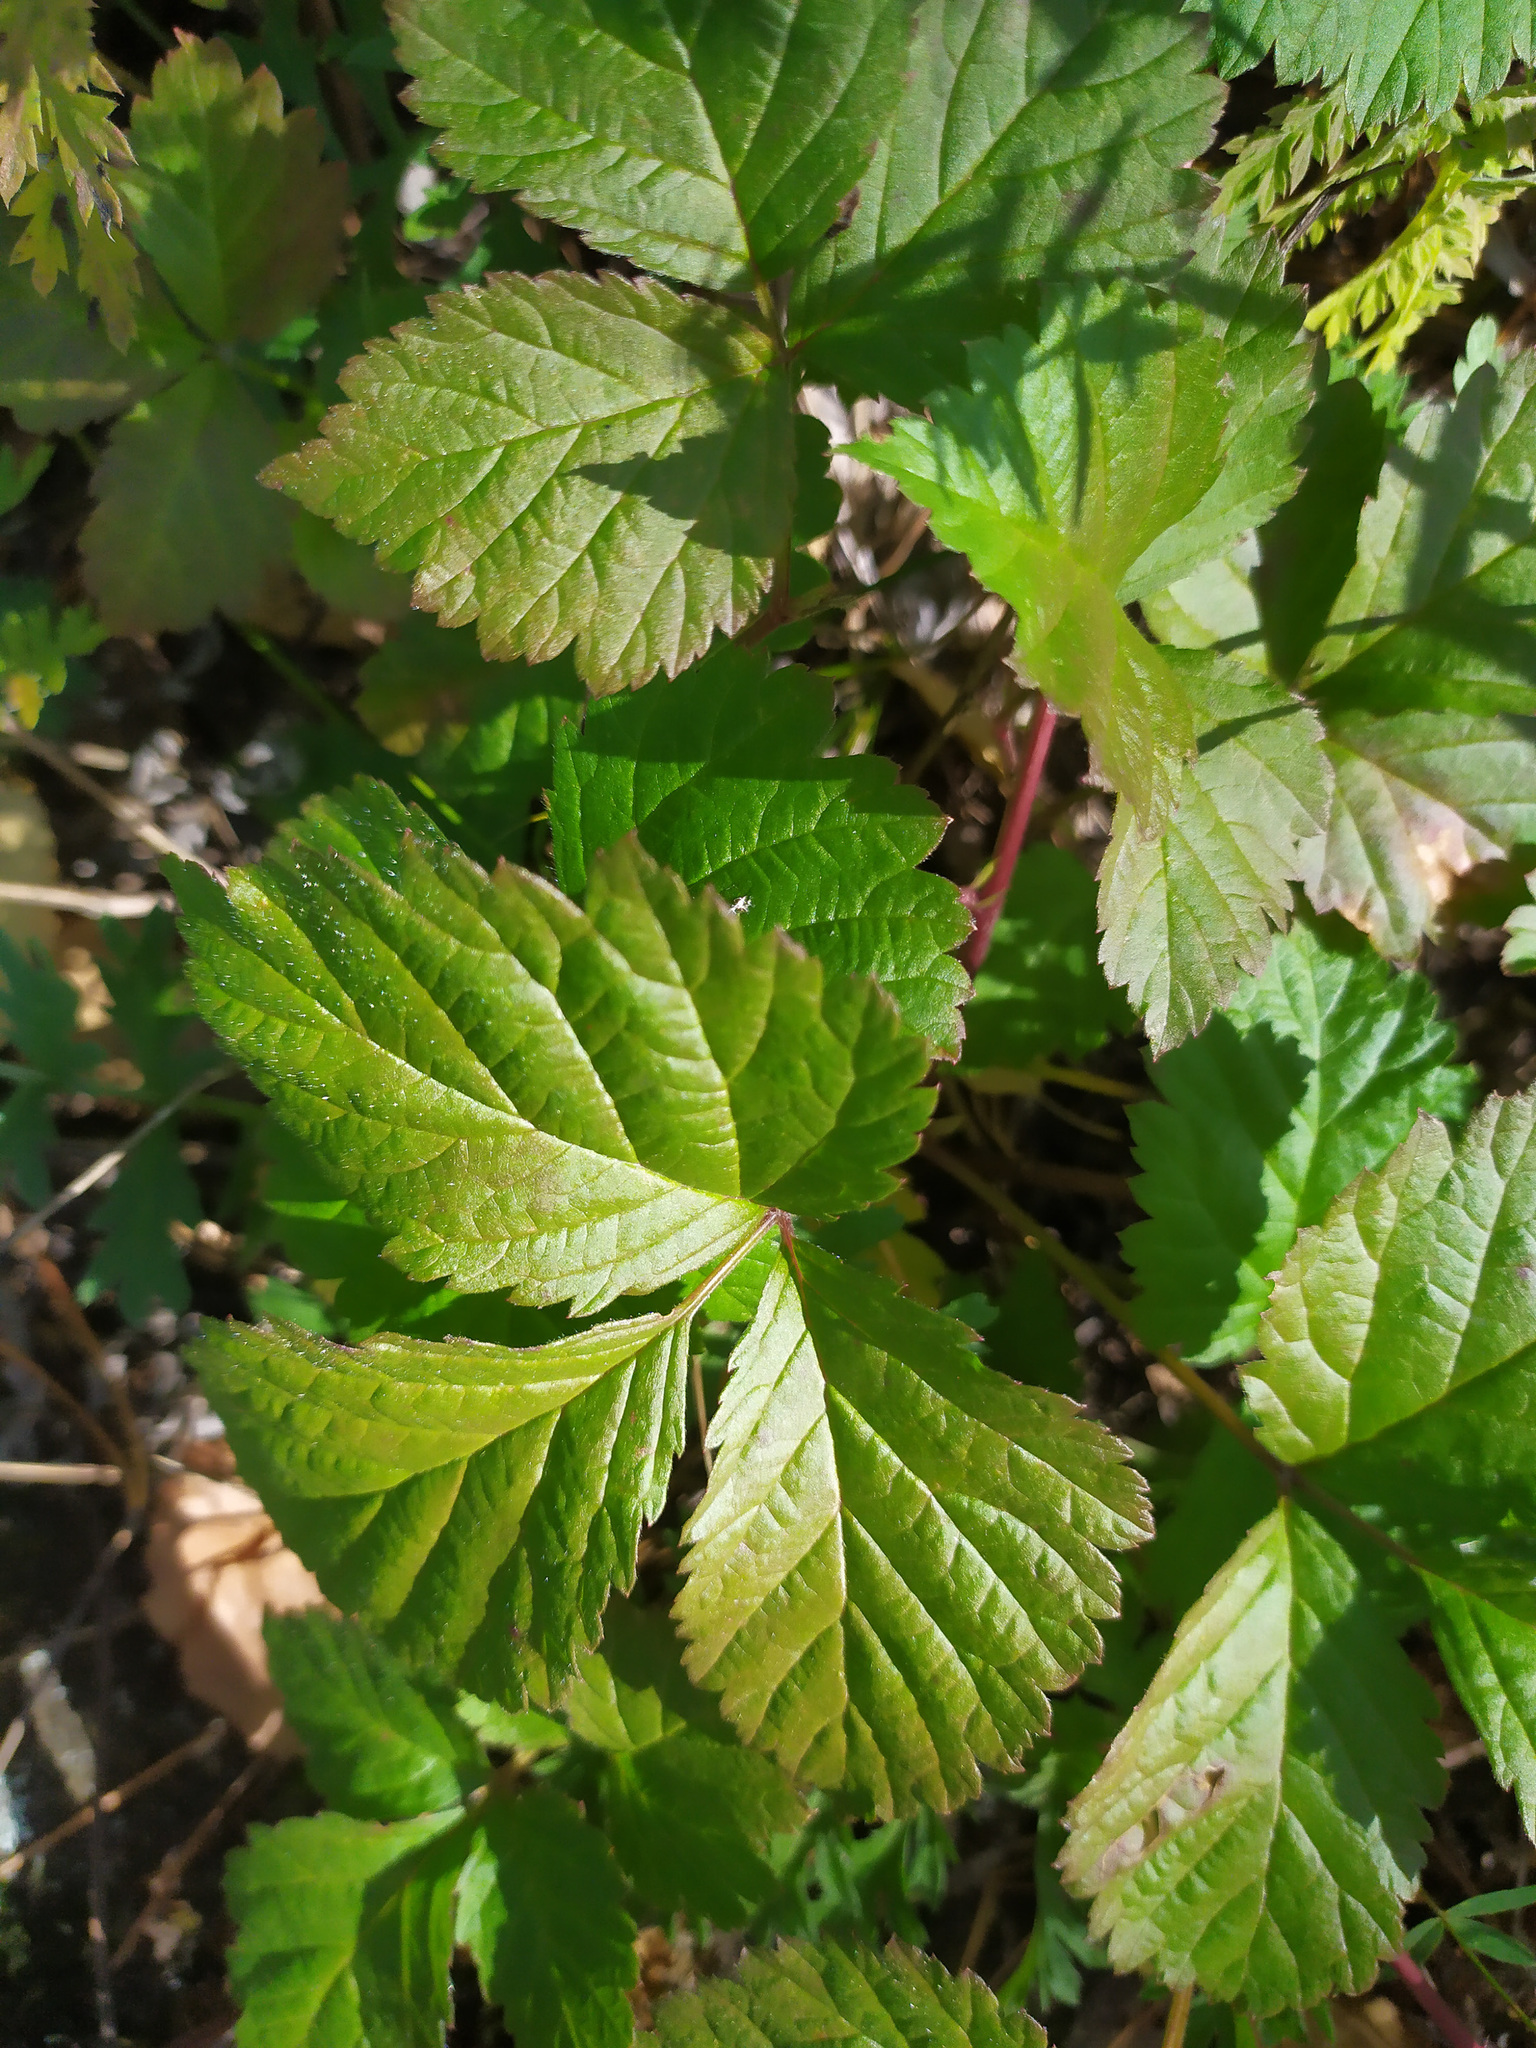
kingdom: Plantae
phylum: Tracheophyta
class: Magnoliopsida
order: Rosales
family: Rosaceae
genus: Rubus
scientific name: Rubus saxatilis
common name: Stone bramble
